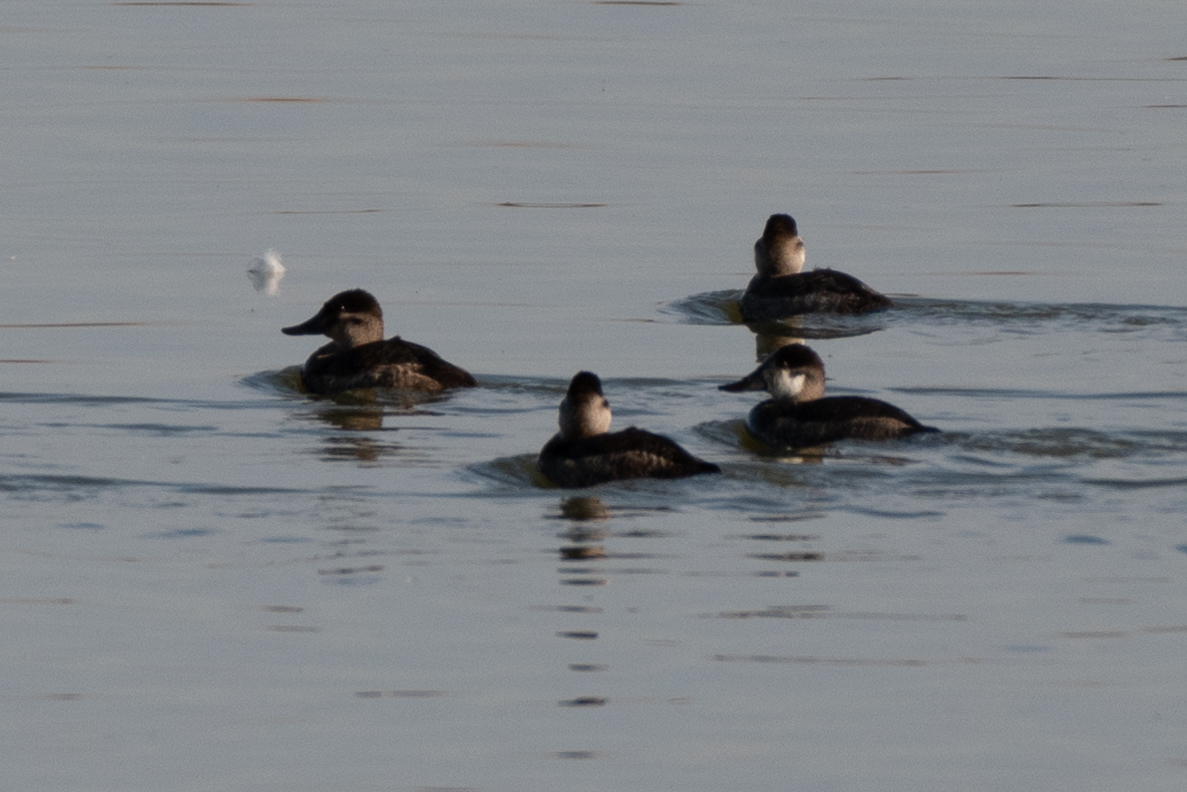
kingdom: Animalia
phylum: Chordata
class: Aves
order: Anseriformes
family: Anatidae
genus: Oxyura
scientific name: Oxyura jamaicensis
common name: Ruddy duck
